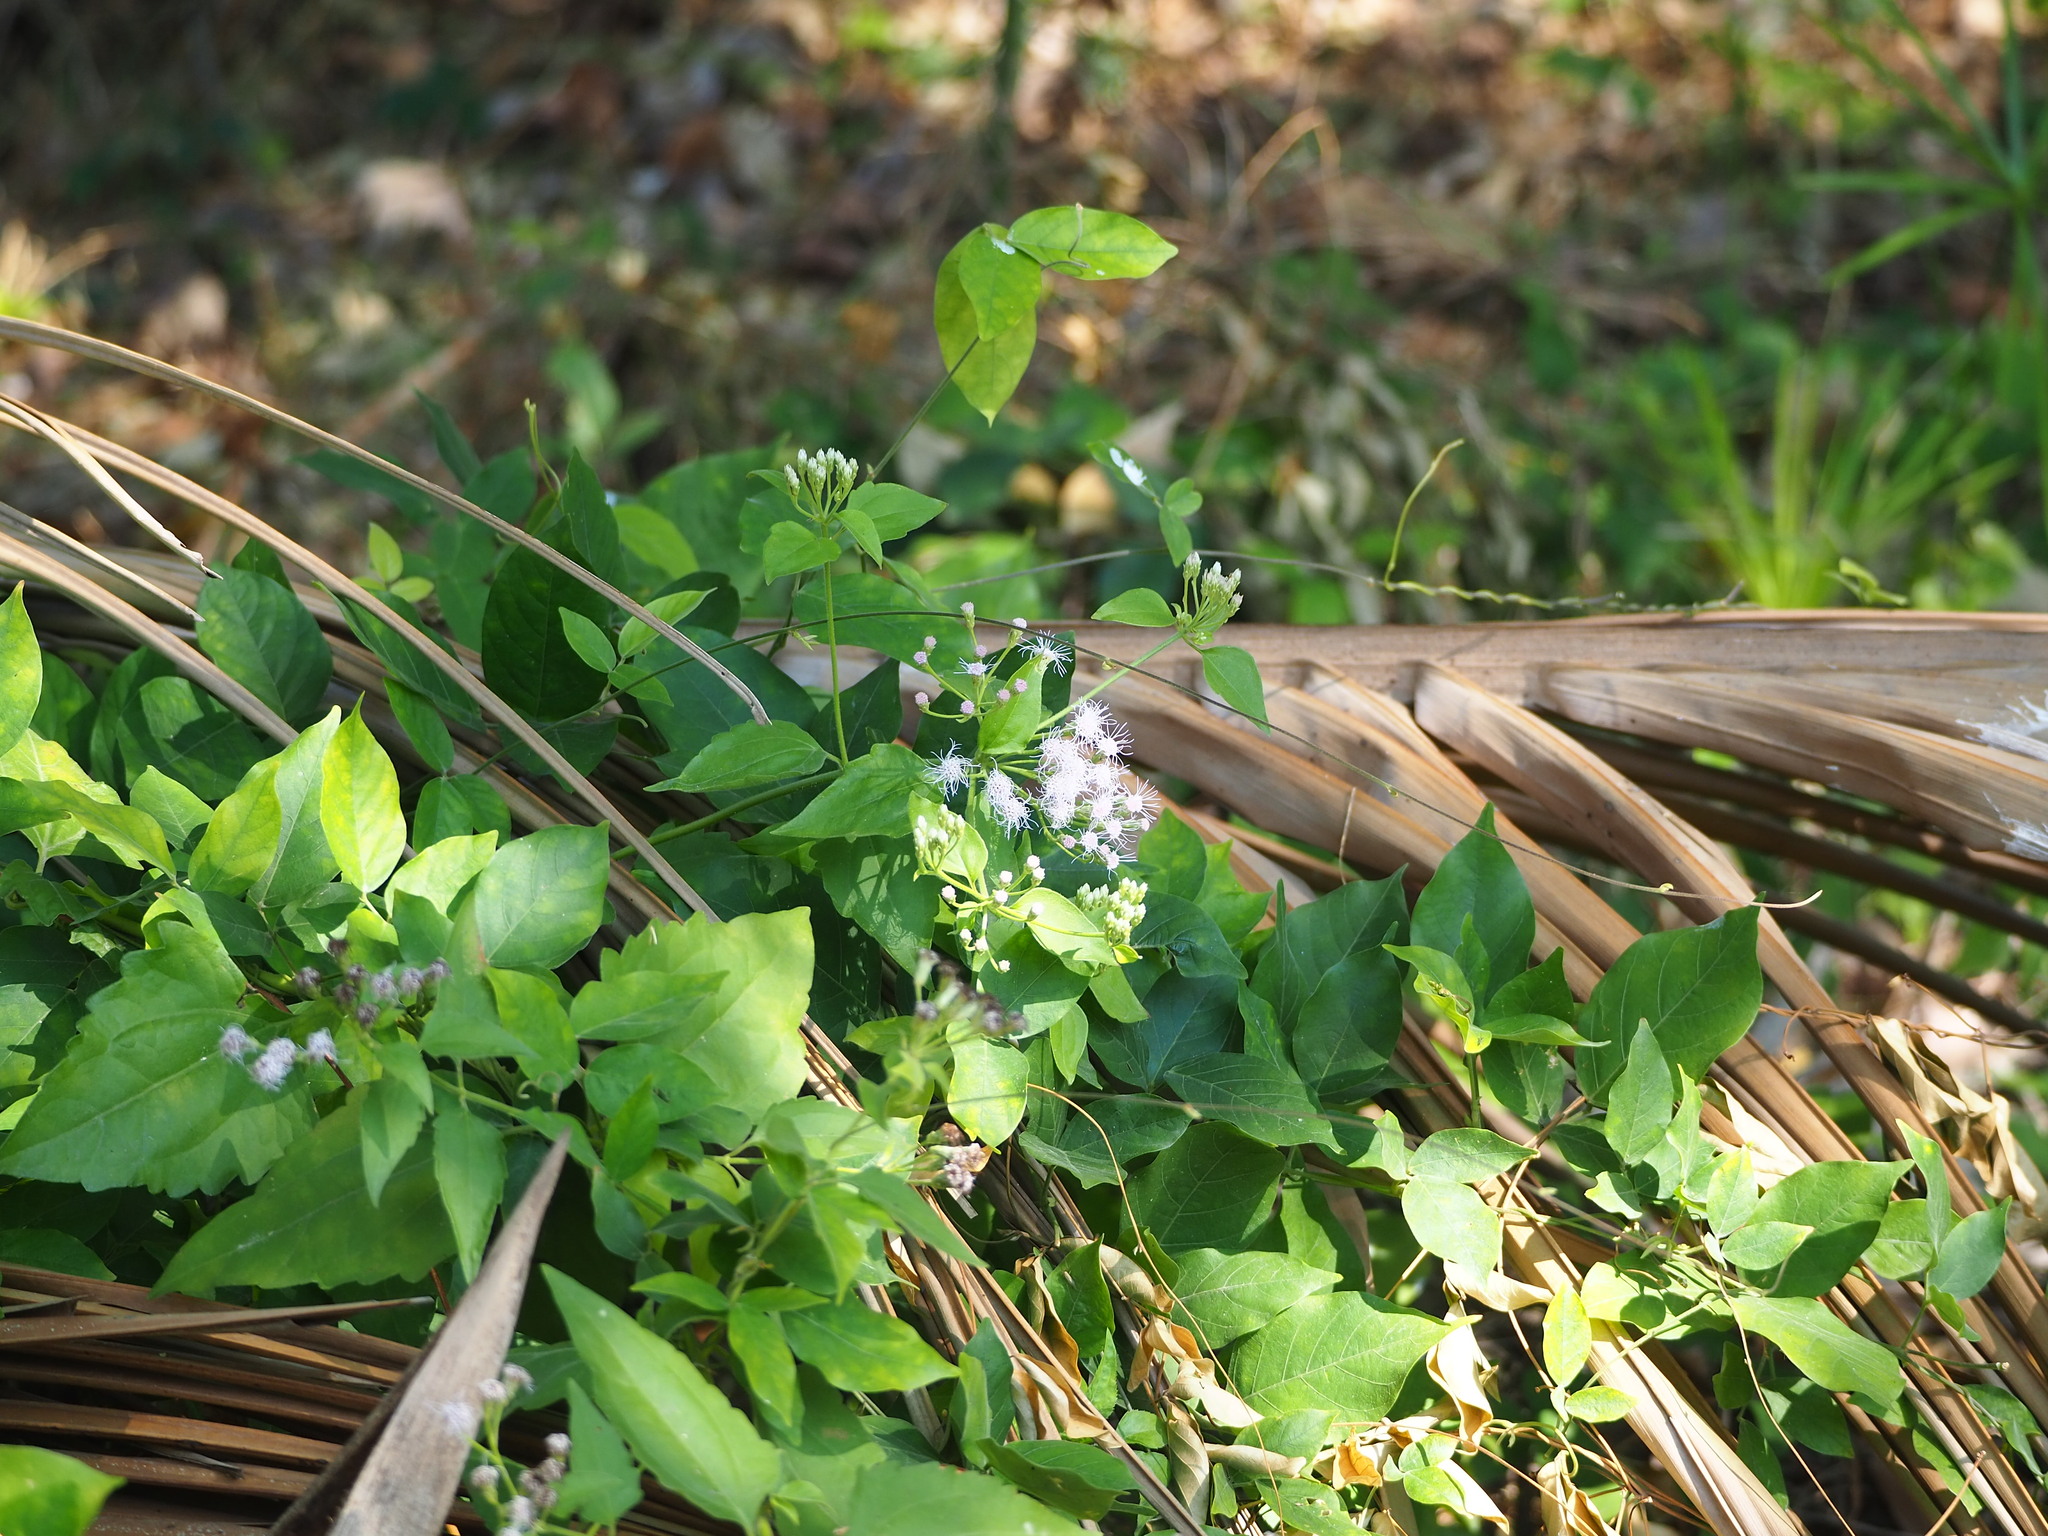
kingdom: Plantae
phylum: Tracheophyta
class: Magnoliopsida
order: Asterales
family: Asteraceae
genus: Chromolaena
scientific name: Chromolaena odorata
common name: Siamweed
